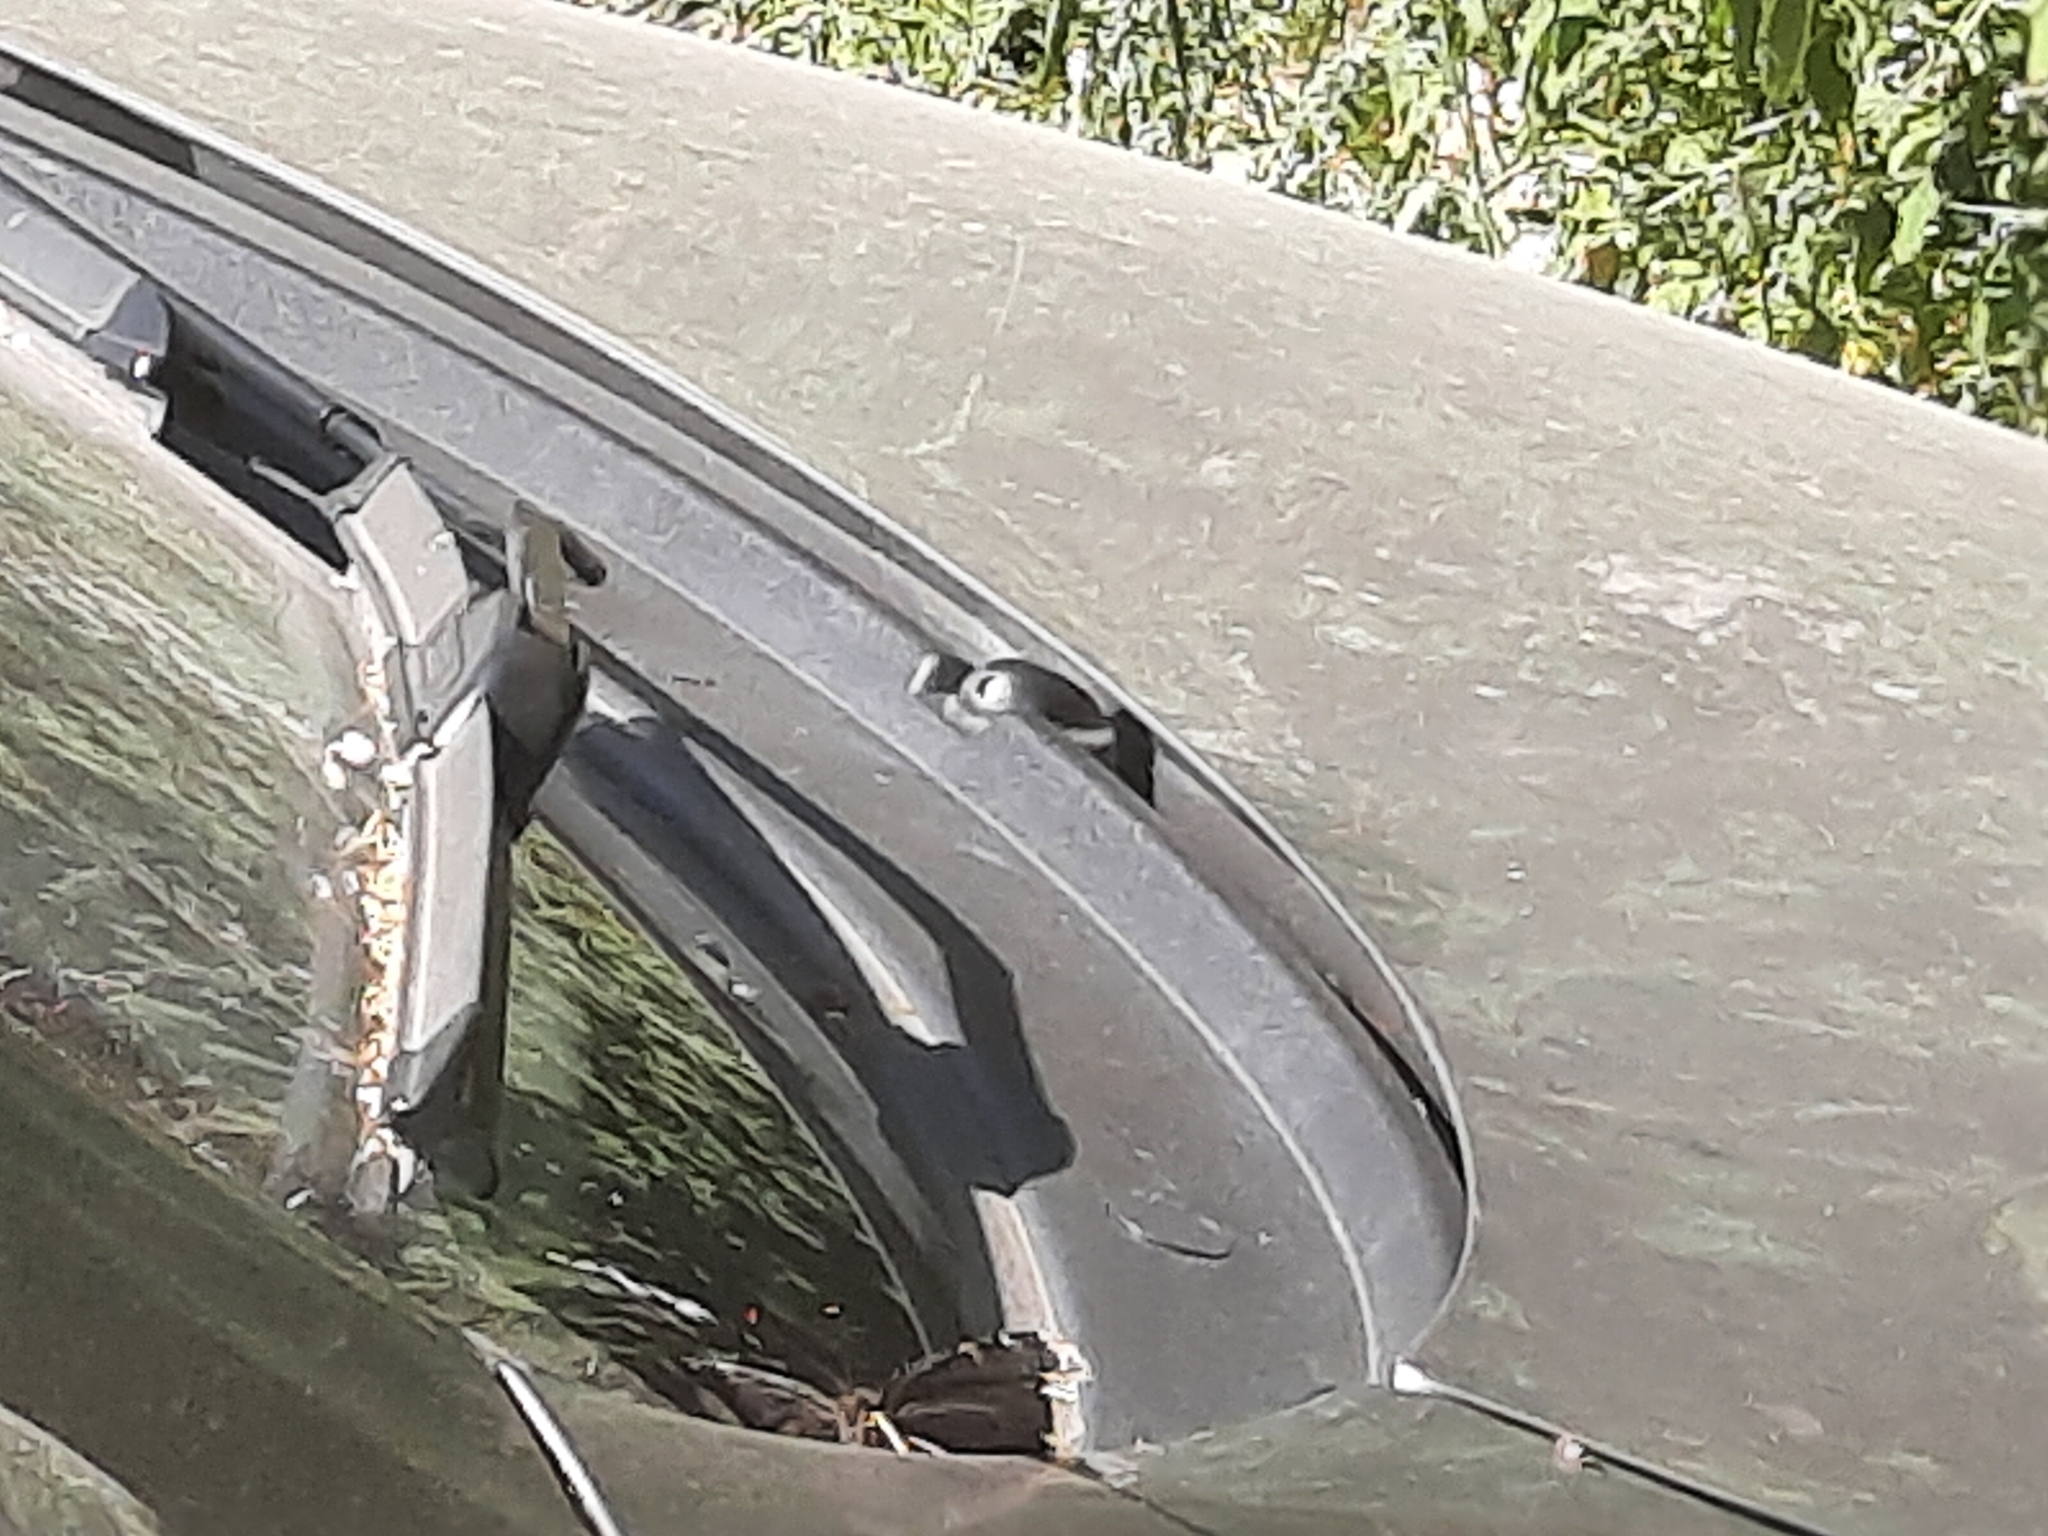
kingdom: Animalia
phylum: Arthropoda
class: Insecta
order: Lepidoptera
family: Nymphalidae
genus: Nymphalis
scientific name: Nymphalis antiopa
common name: Camberwell beauty
